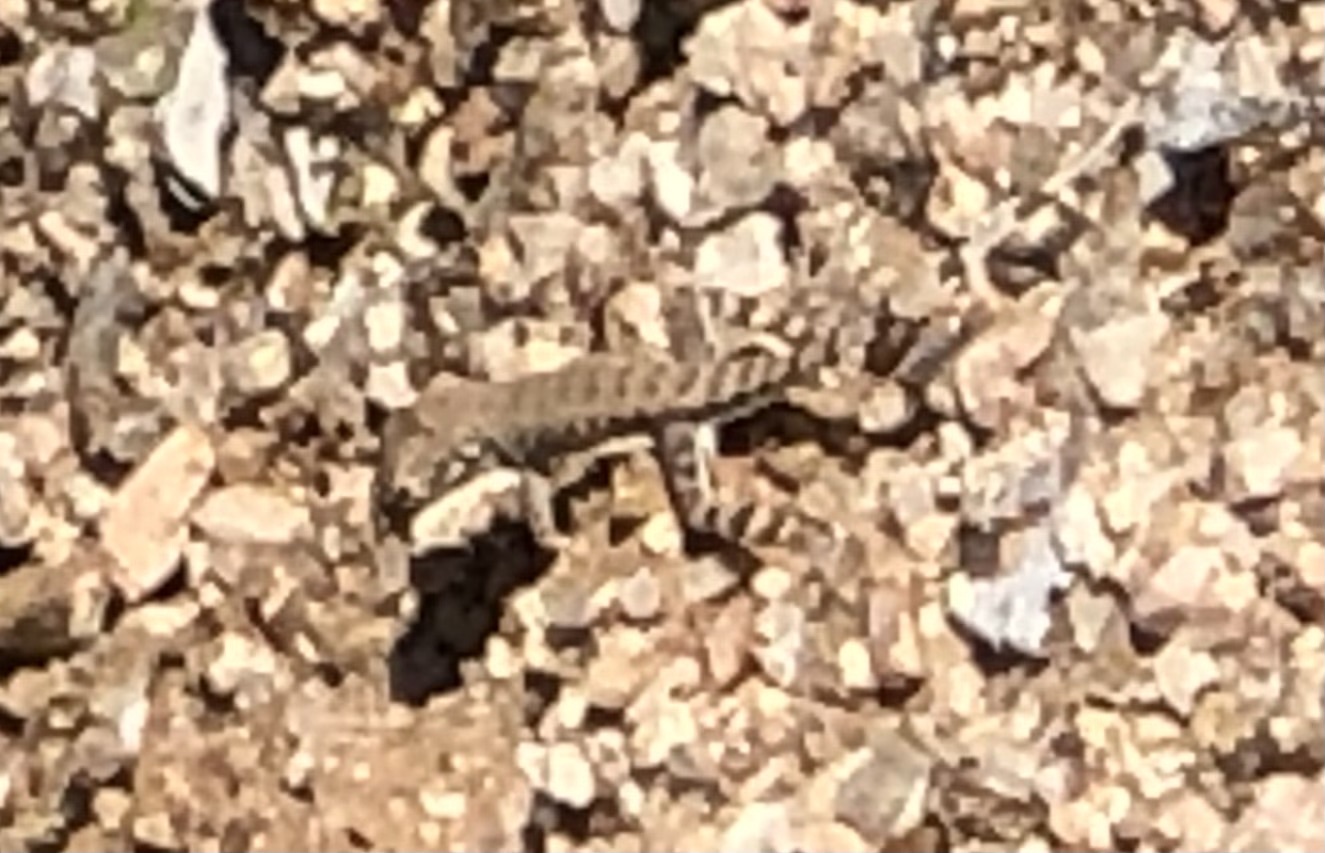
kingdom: Animalia
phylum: Chordata
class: Squamata
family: Phrynosomatidae
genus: Callisaurus
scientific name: Callisaurus draconoides
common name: Zebra-tailed lizard
